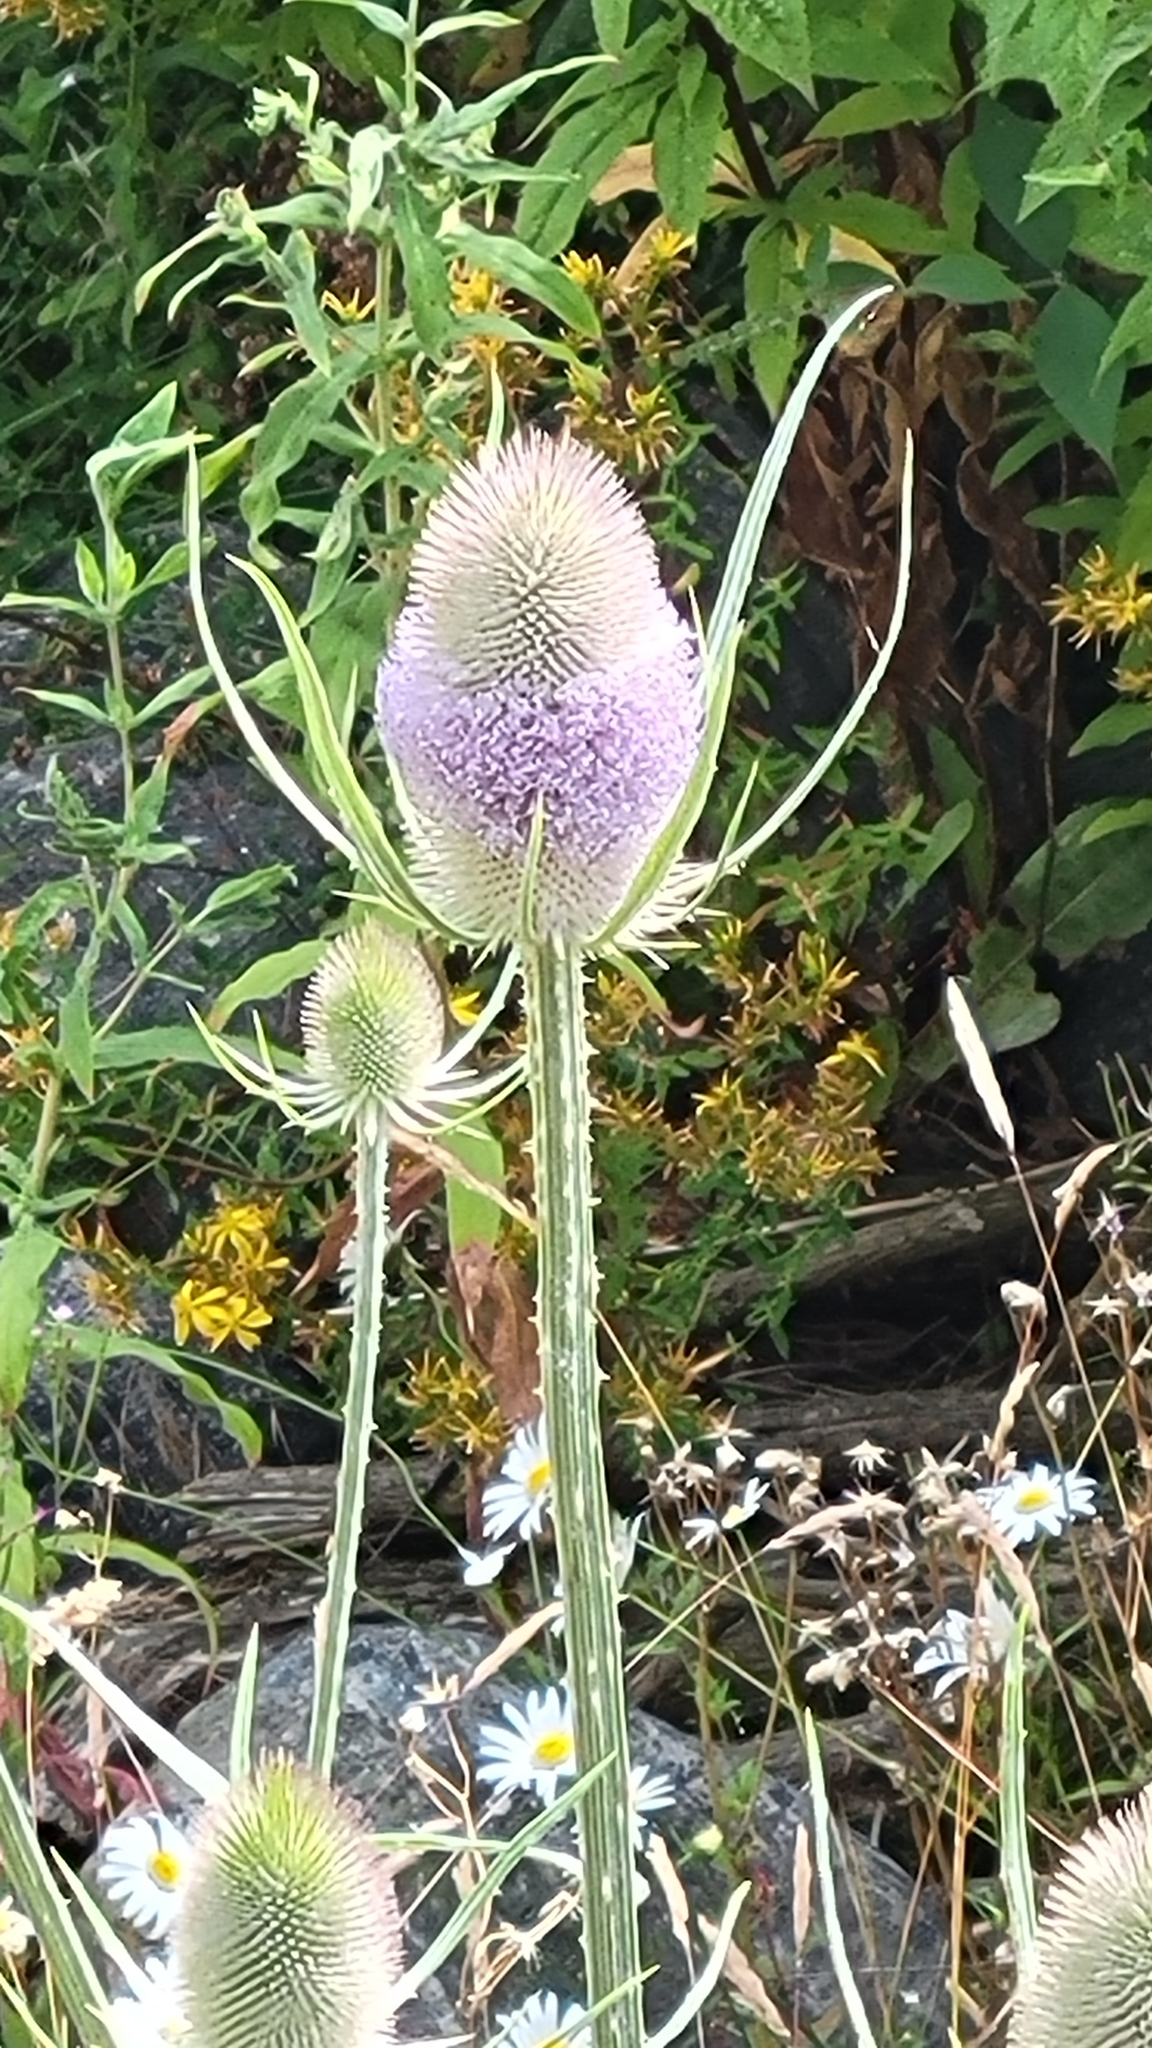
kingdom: Plantae
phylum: Tracheophyta
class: Magnoliopsida
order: Dipsacales
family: Caprifoliaceae
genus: Dipsacus
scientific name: Dipsacus fullonum
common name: Teasel
